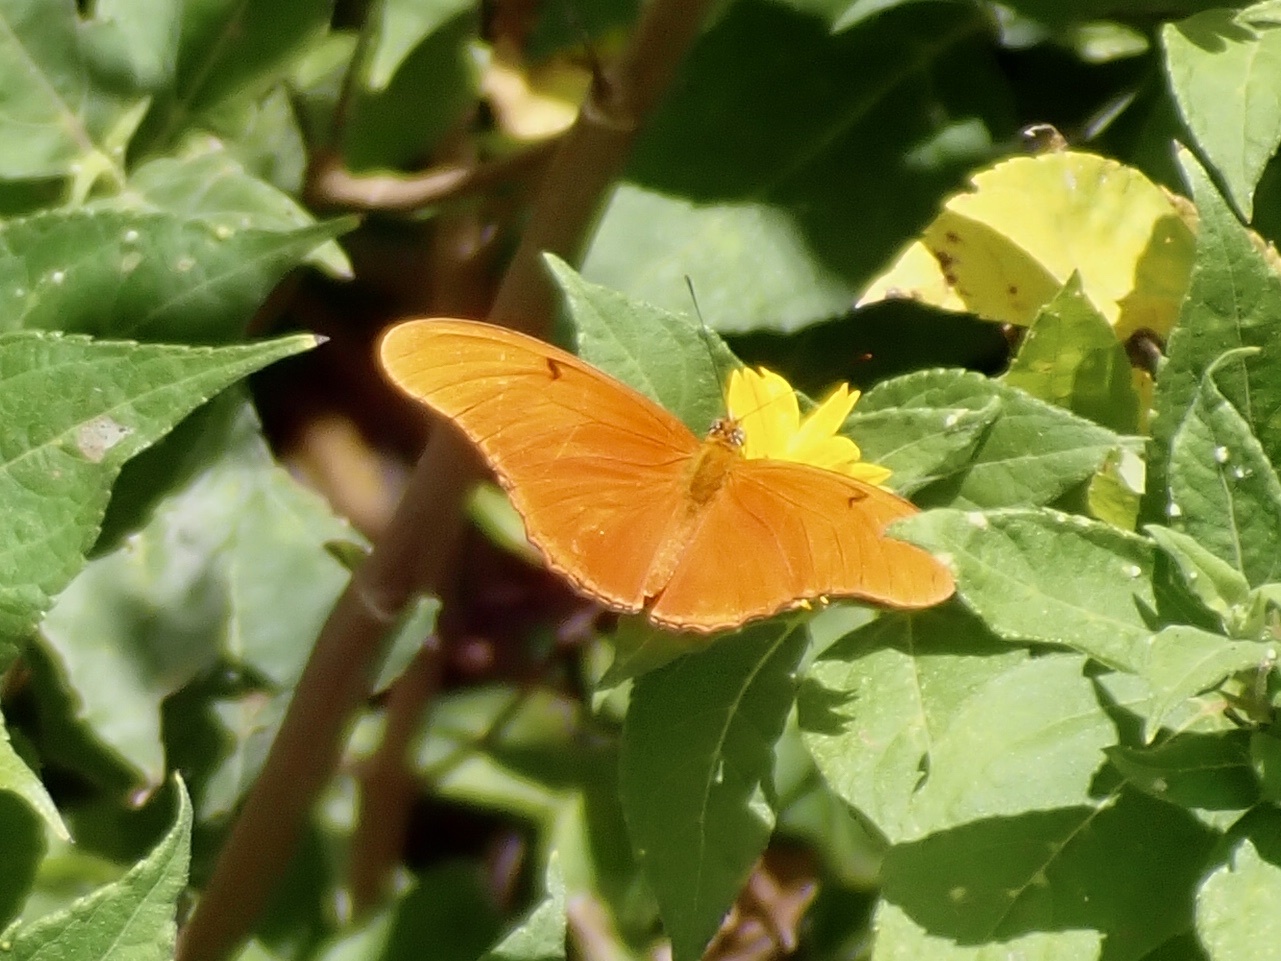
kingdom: Animalia
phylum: Arthropoda
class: Insecta
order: Lepidoptera
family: Nymphalidae
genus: Dryas
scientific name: Dryas iulia
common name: Flambeau
